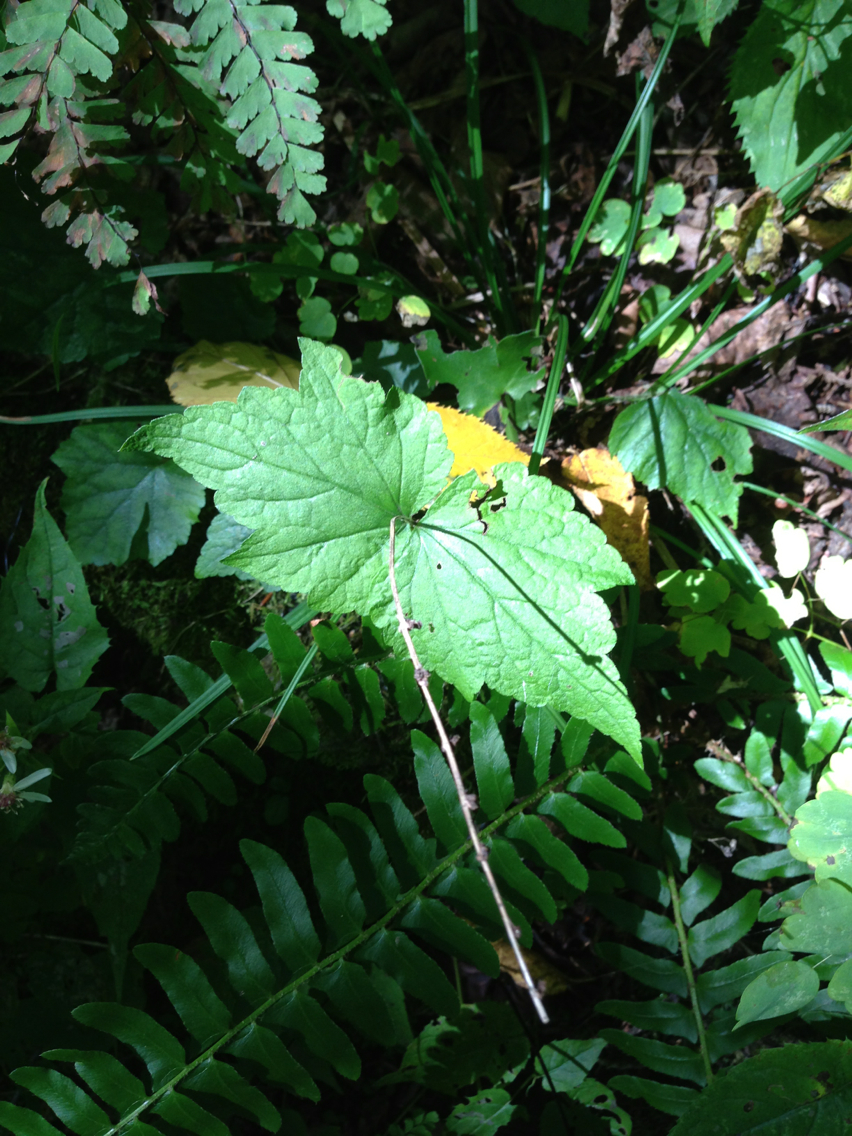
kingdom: Plantae
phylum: Tracheophyta
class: Magnoliopsida
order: Saxifragales
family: Saxifragaceae
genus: Mitella
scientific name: Mitella diphylla
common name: Coolwort
